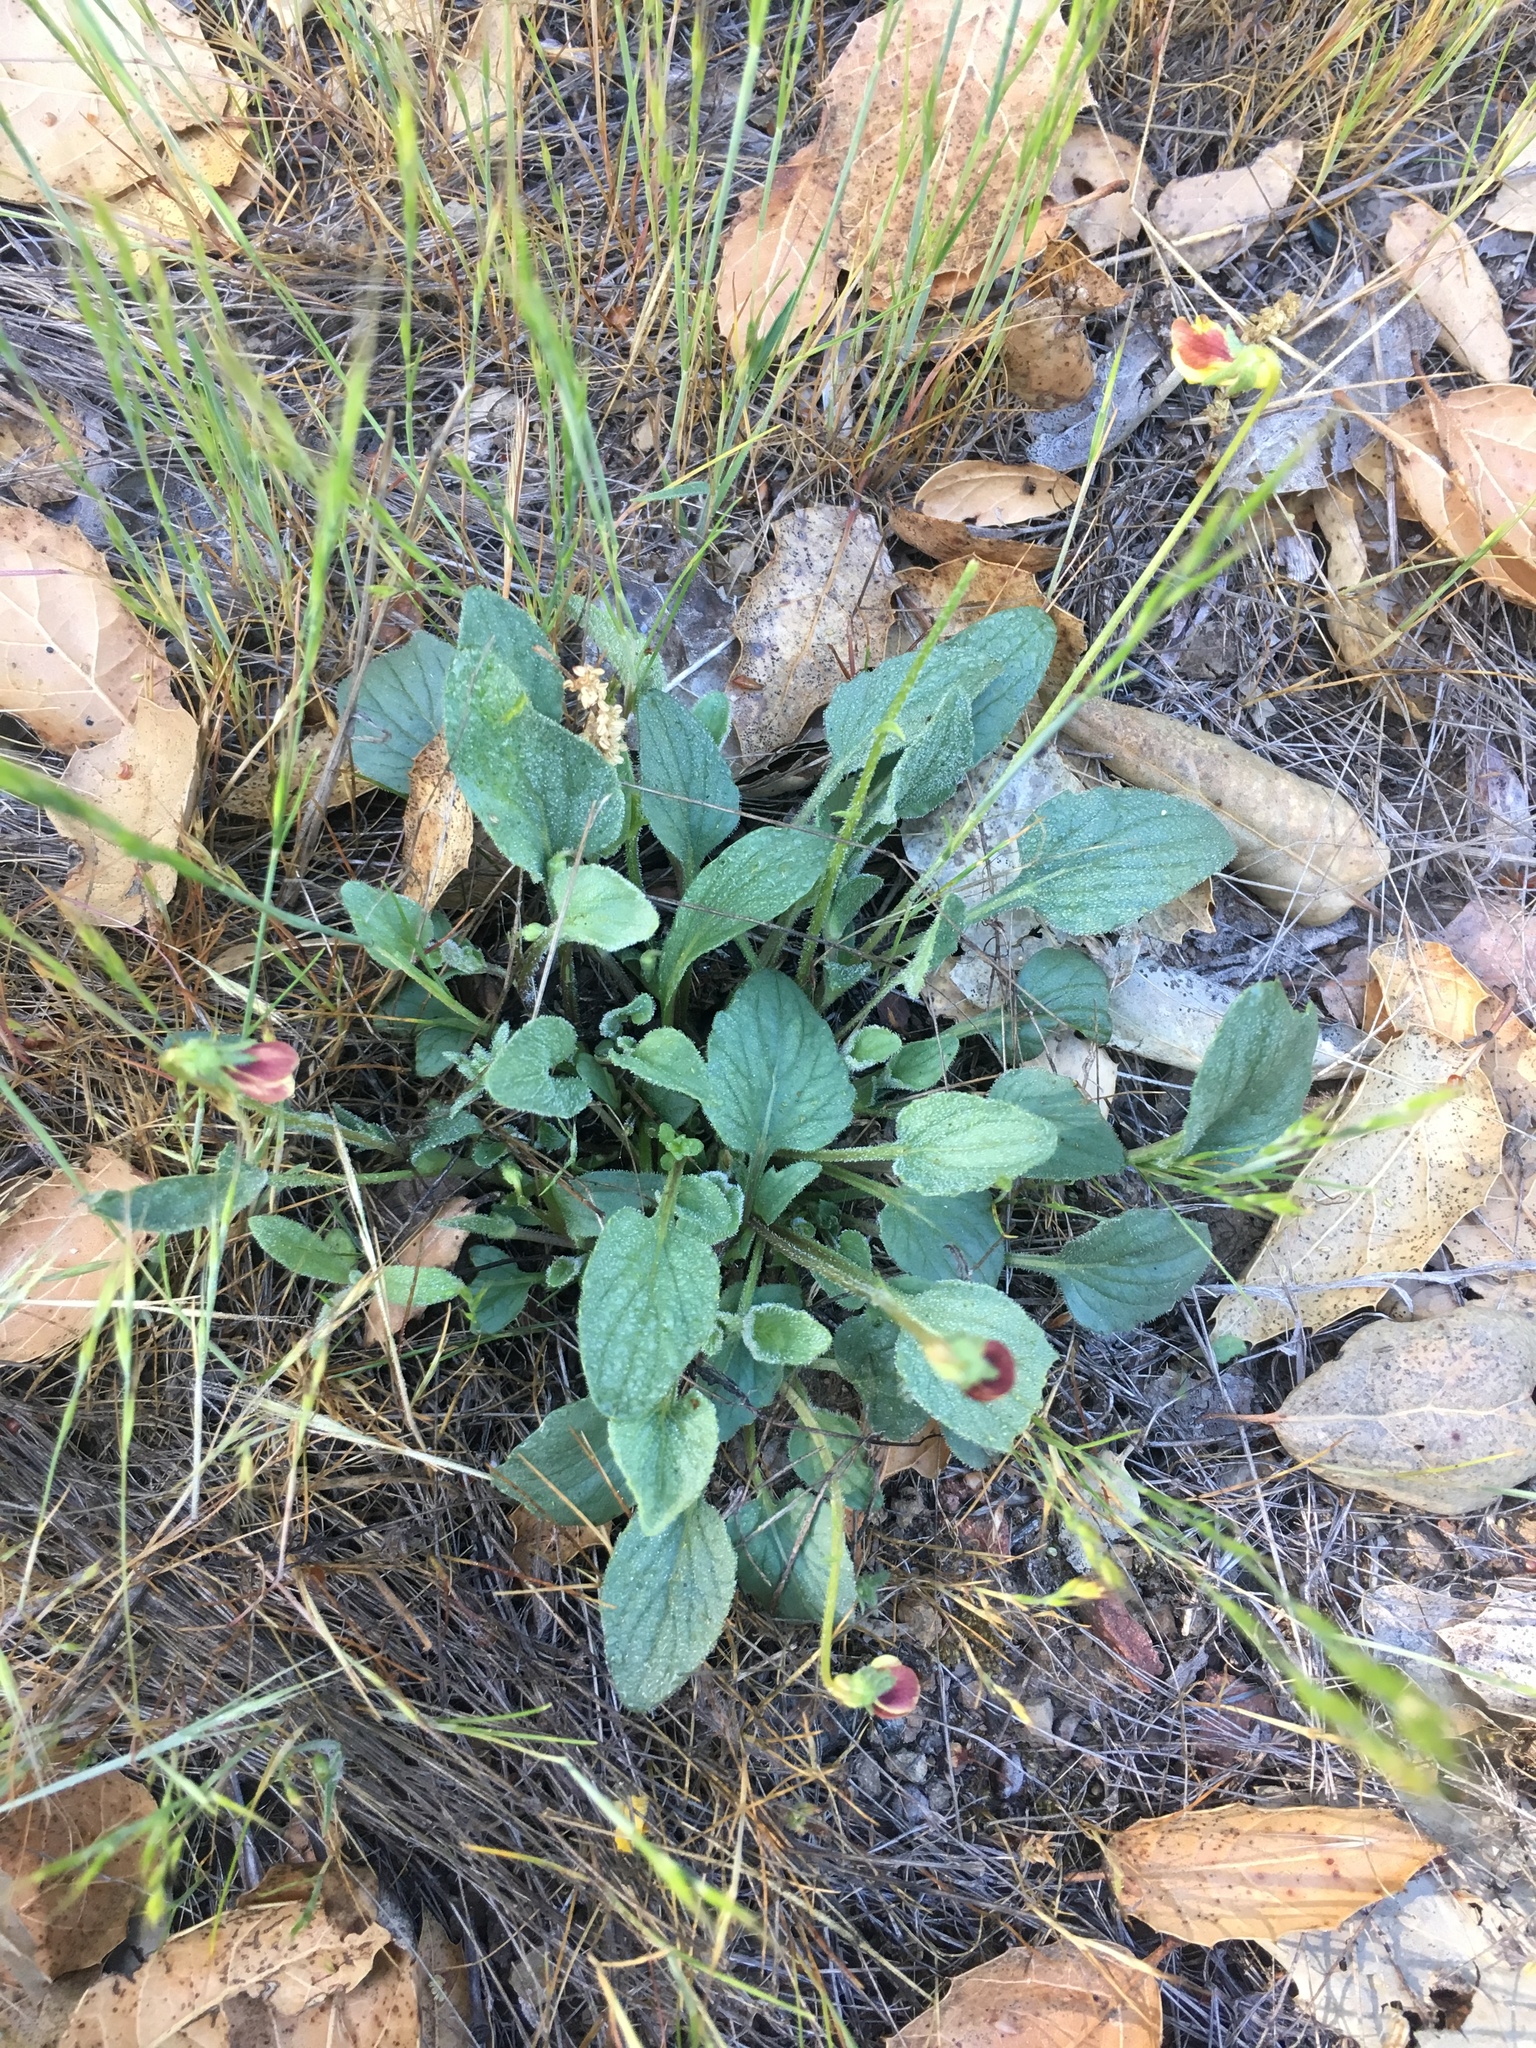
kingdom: Plantae
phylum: Tracheophyta
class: Magnoliopsida
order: Malpighiales
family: Violaceae
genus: Viola
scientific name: Viola purpurea
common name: Pine violet
